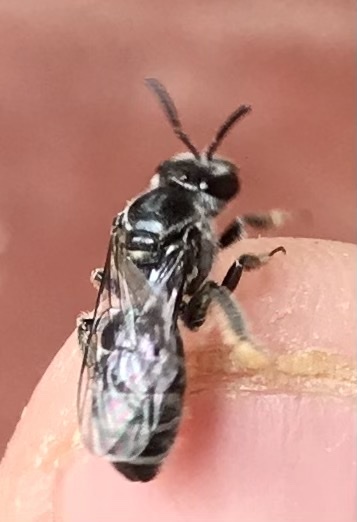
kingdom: Animalia
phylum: Arthropoda
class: Insecta
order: Hymenoptera
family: Halictidae
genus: Lasioglossum
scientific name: Lasioglossum albescens
